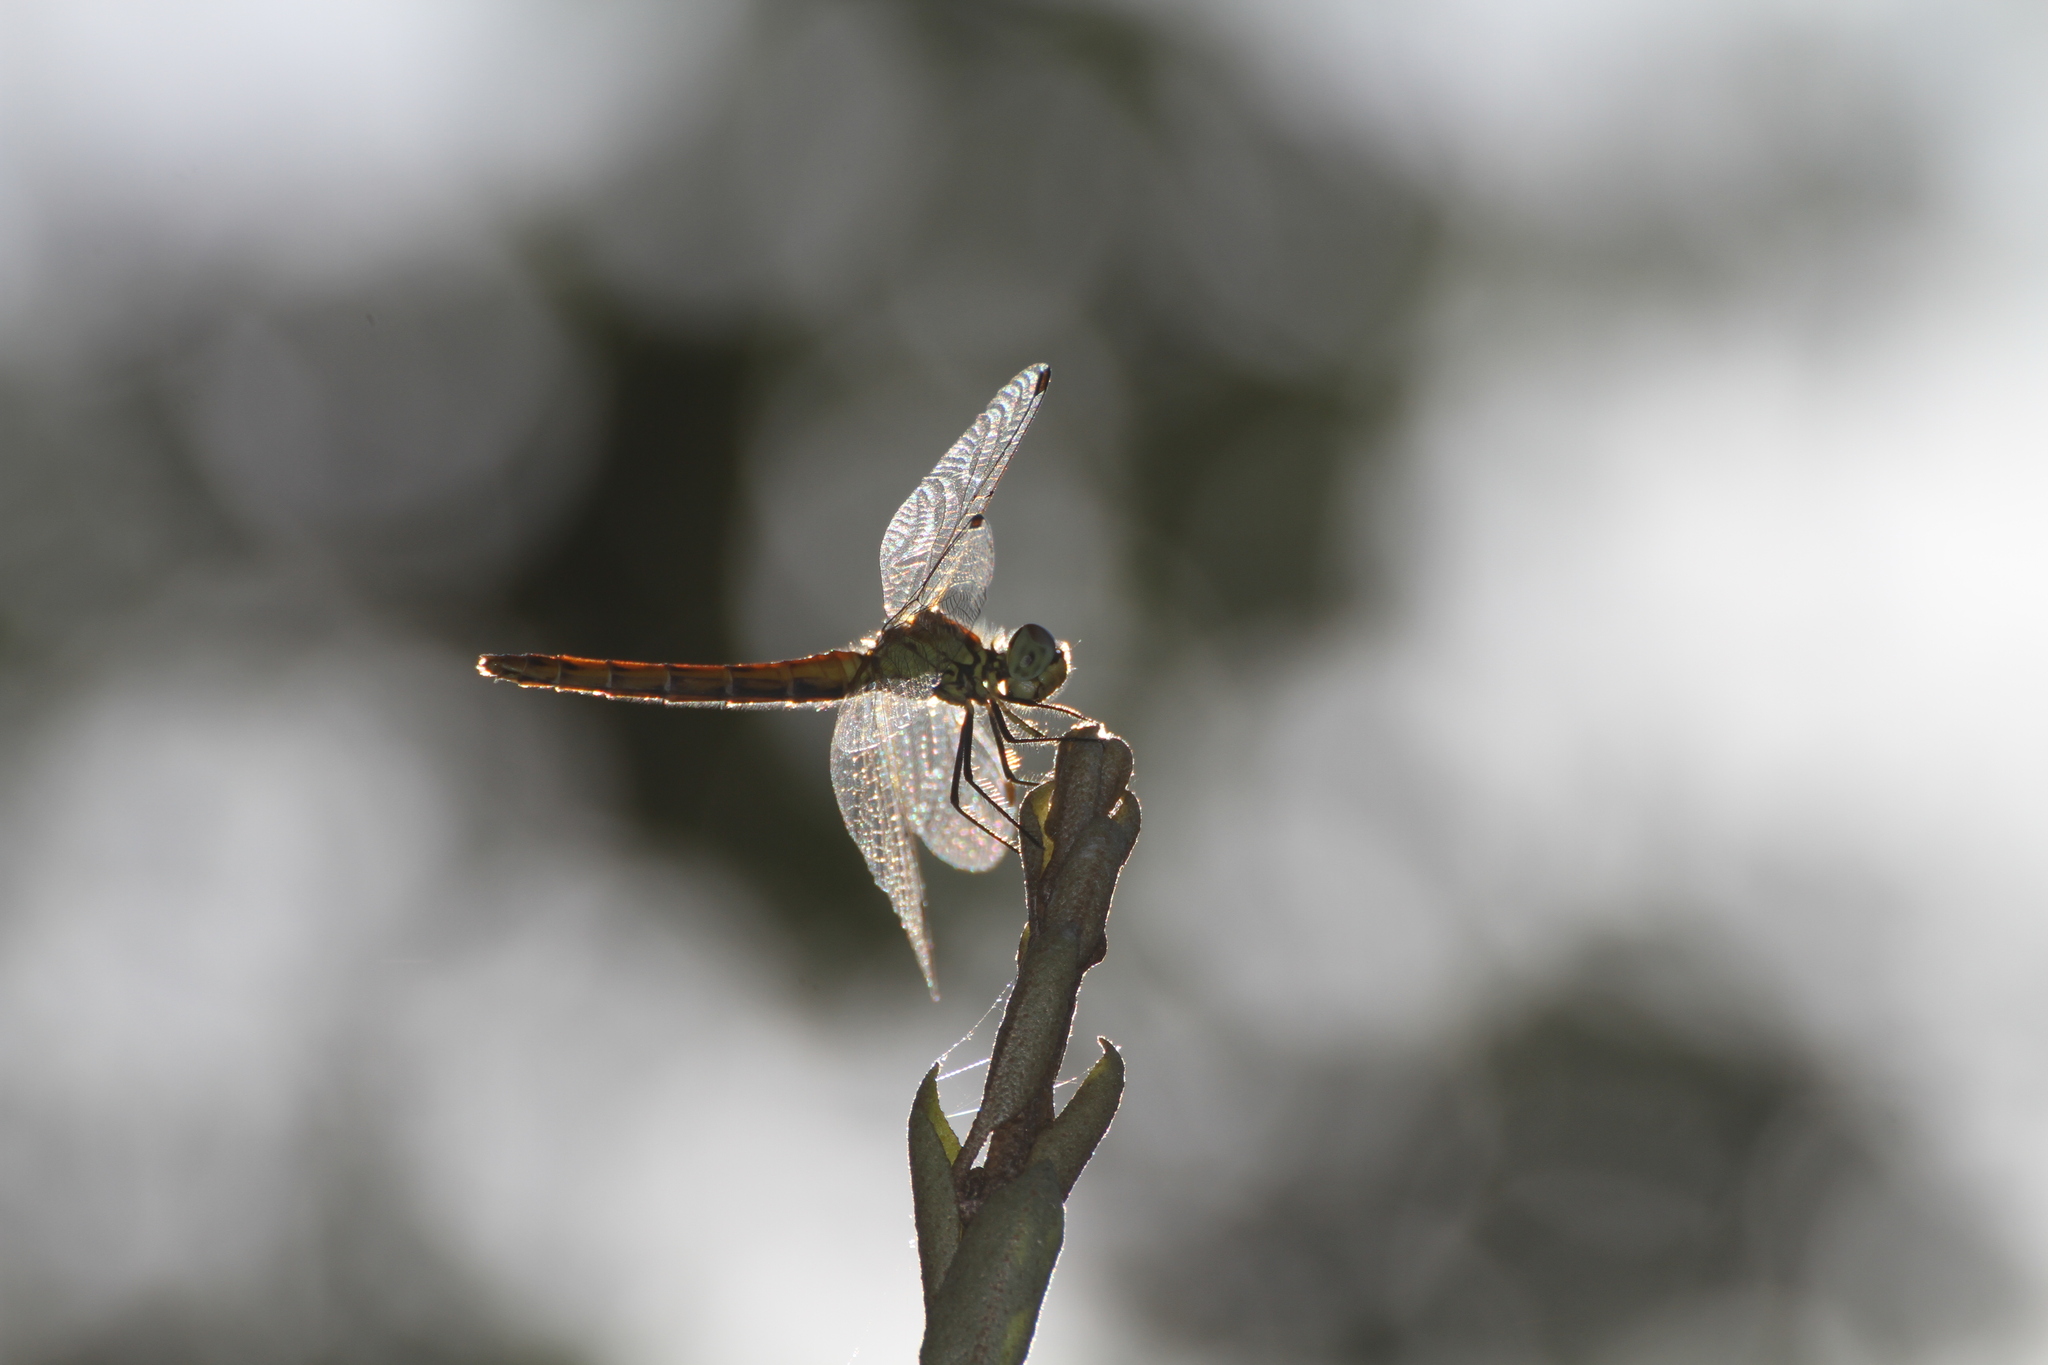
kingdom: Animalia
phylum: Arthropoda
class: Insecta
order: Odonata
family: Libellulidae
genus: Sympetrum
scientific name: Sympetrum depressiusculum
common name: Spotted darter
